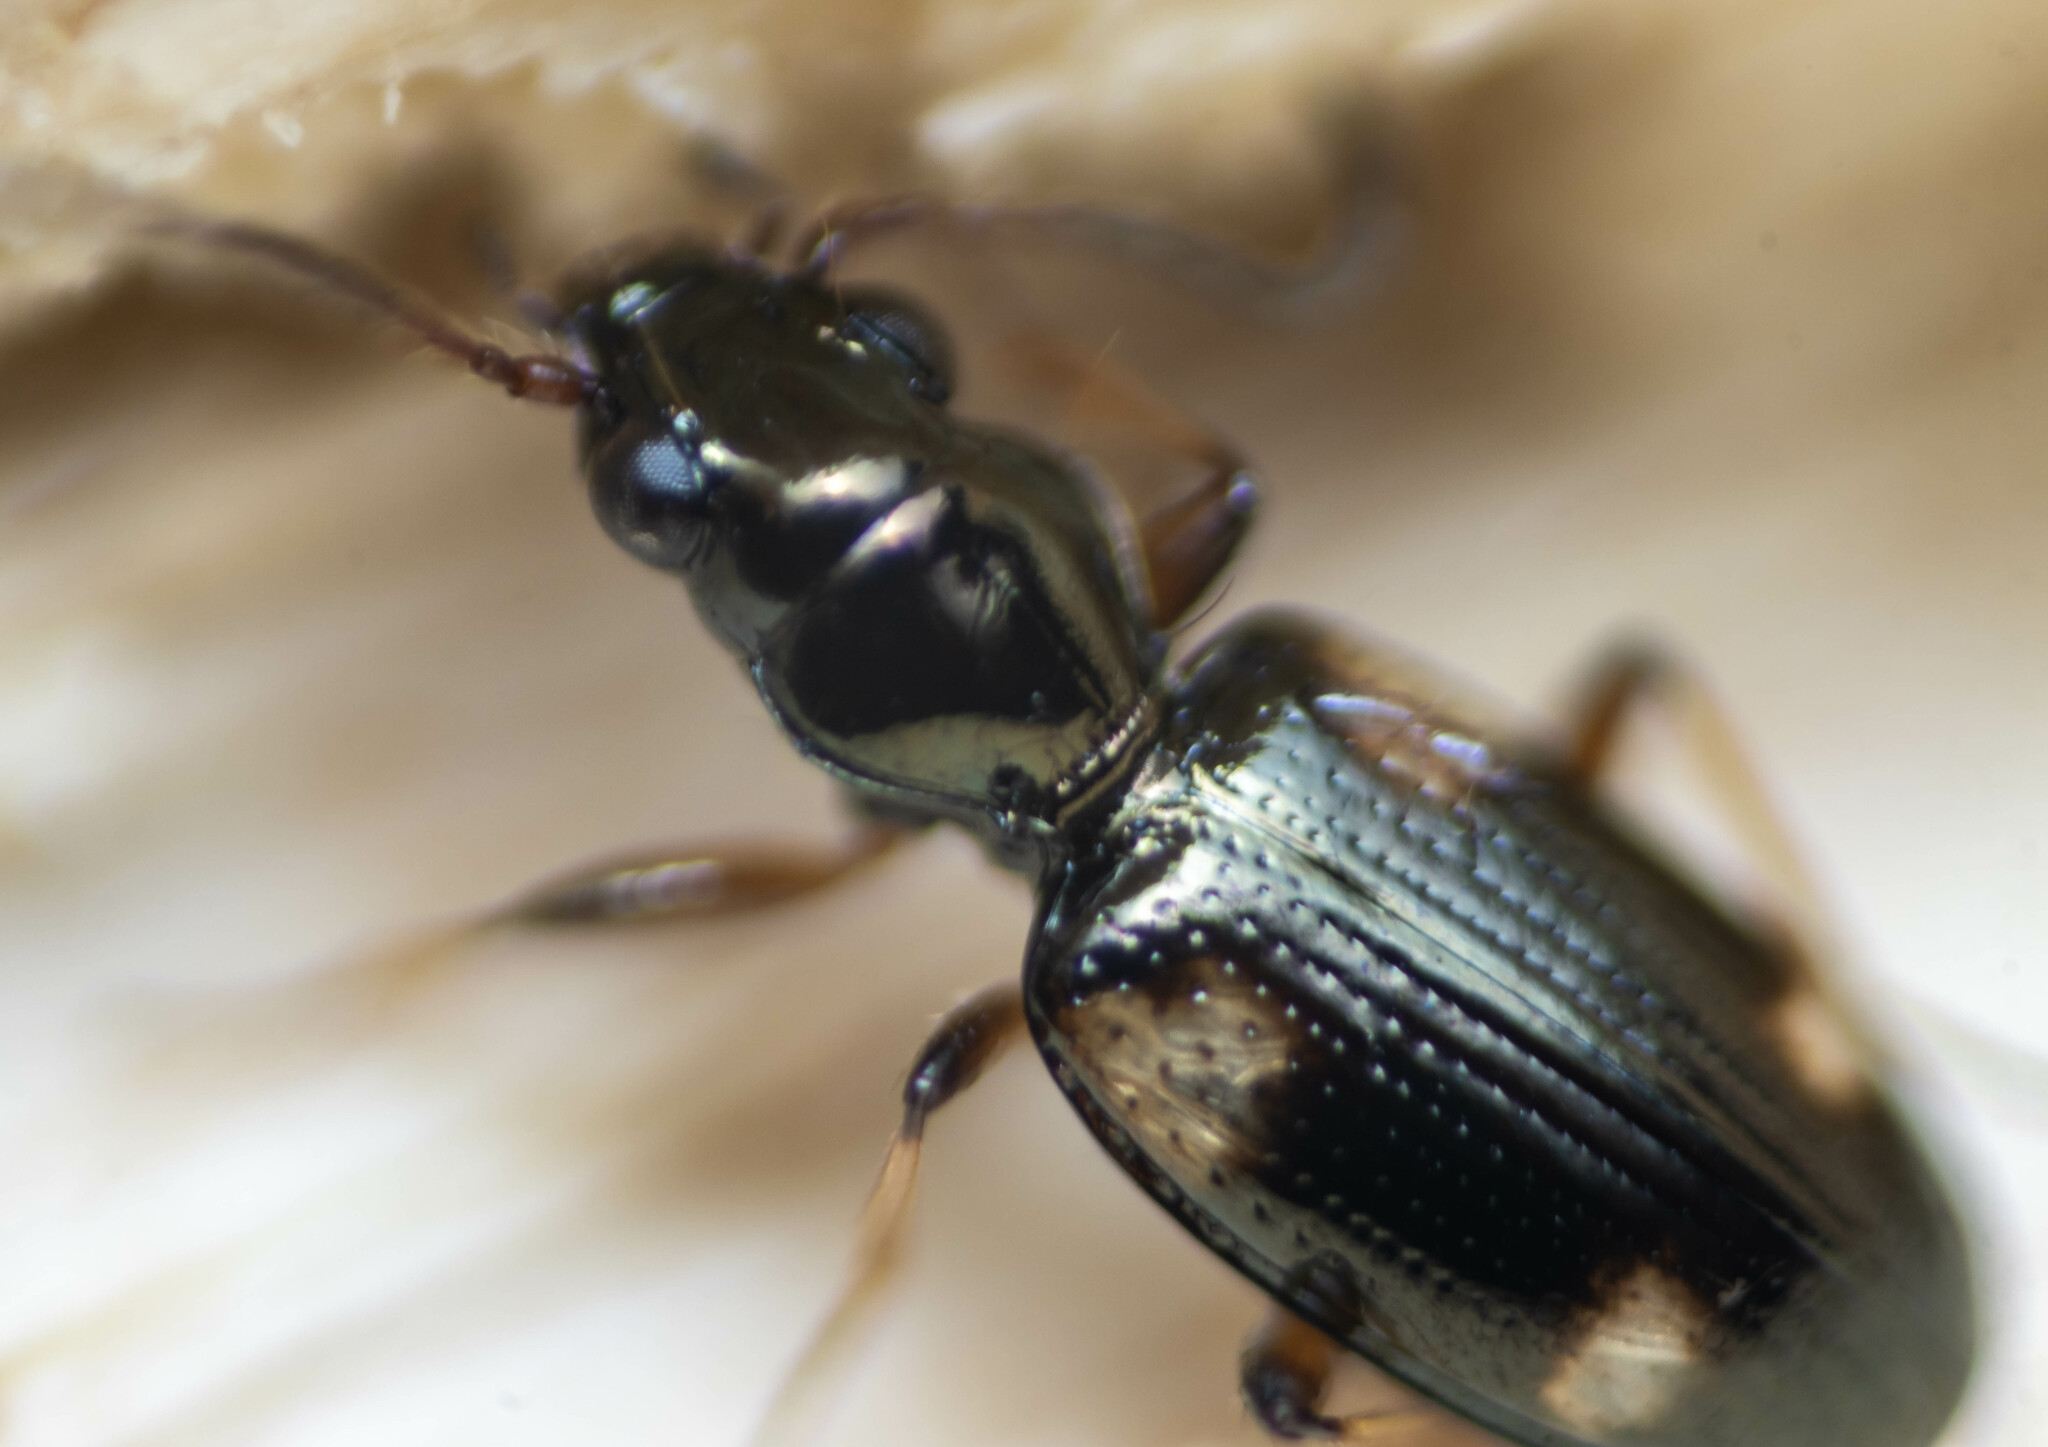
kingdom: Animalia
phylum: Arthropoda
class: Insecta
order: Coleoptera
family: Carabidae
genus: Bembidion
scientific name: Bembidion quadrimaculatum
